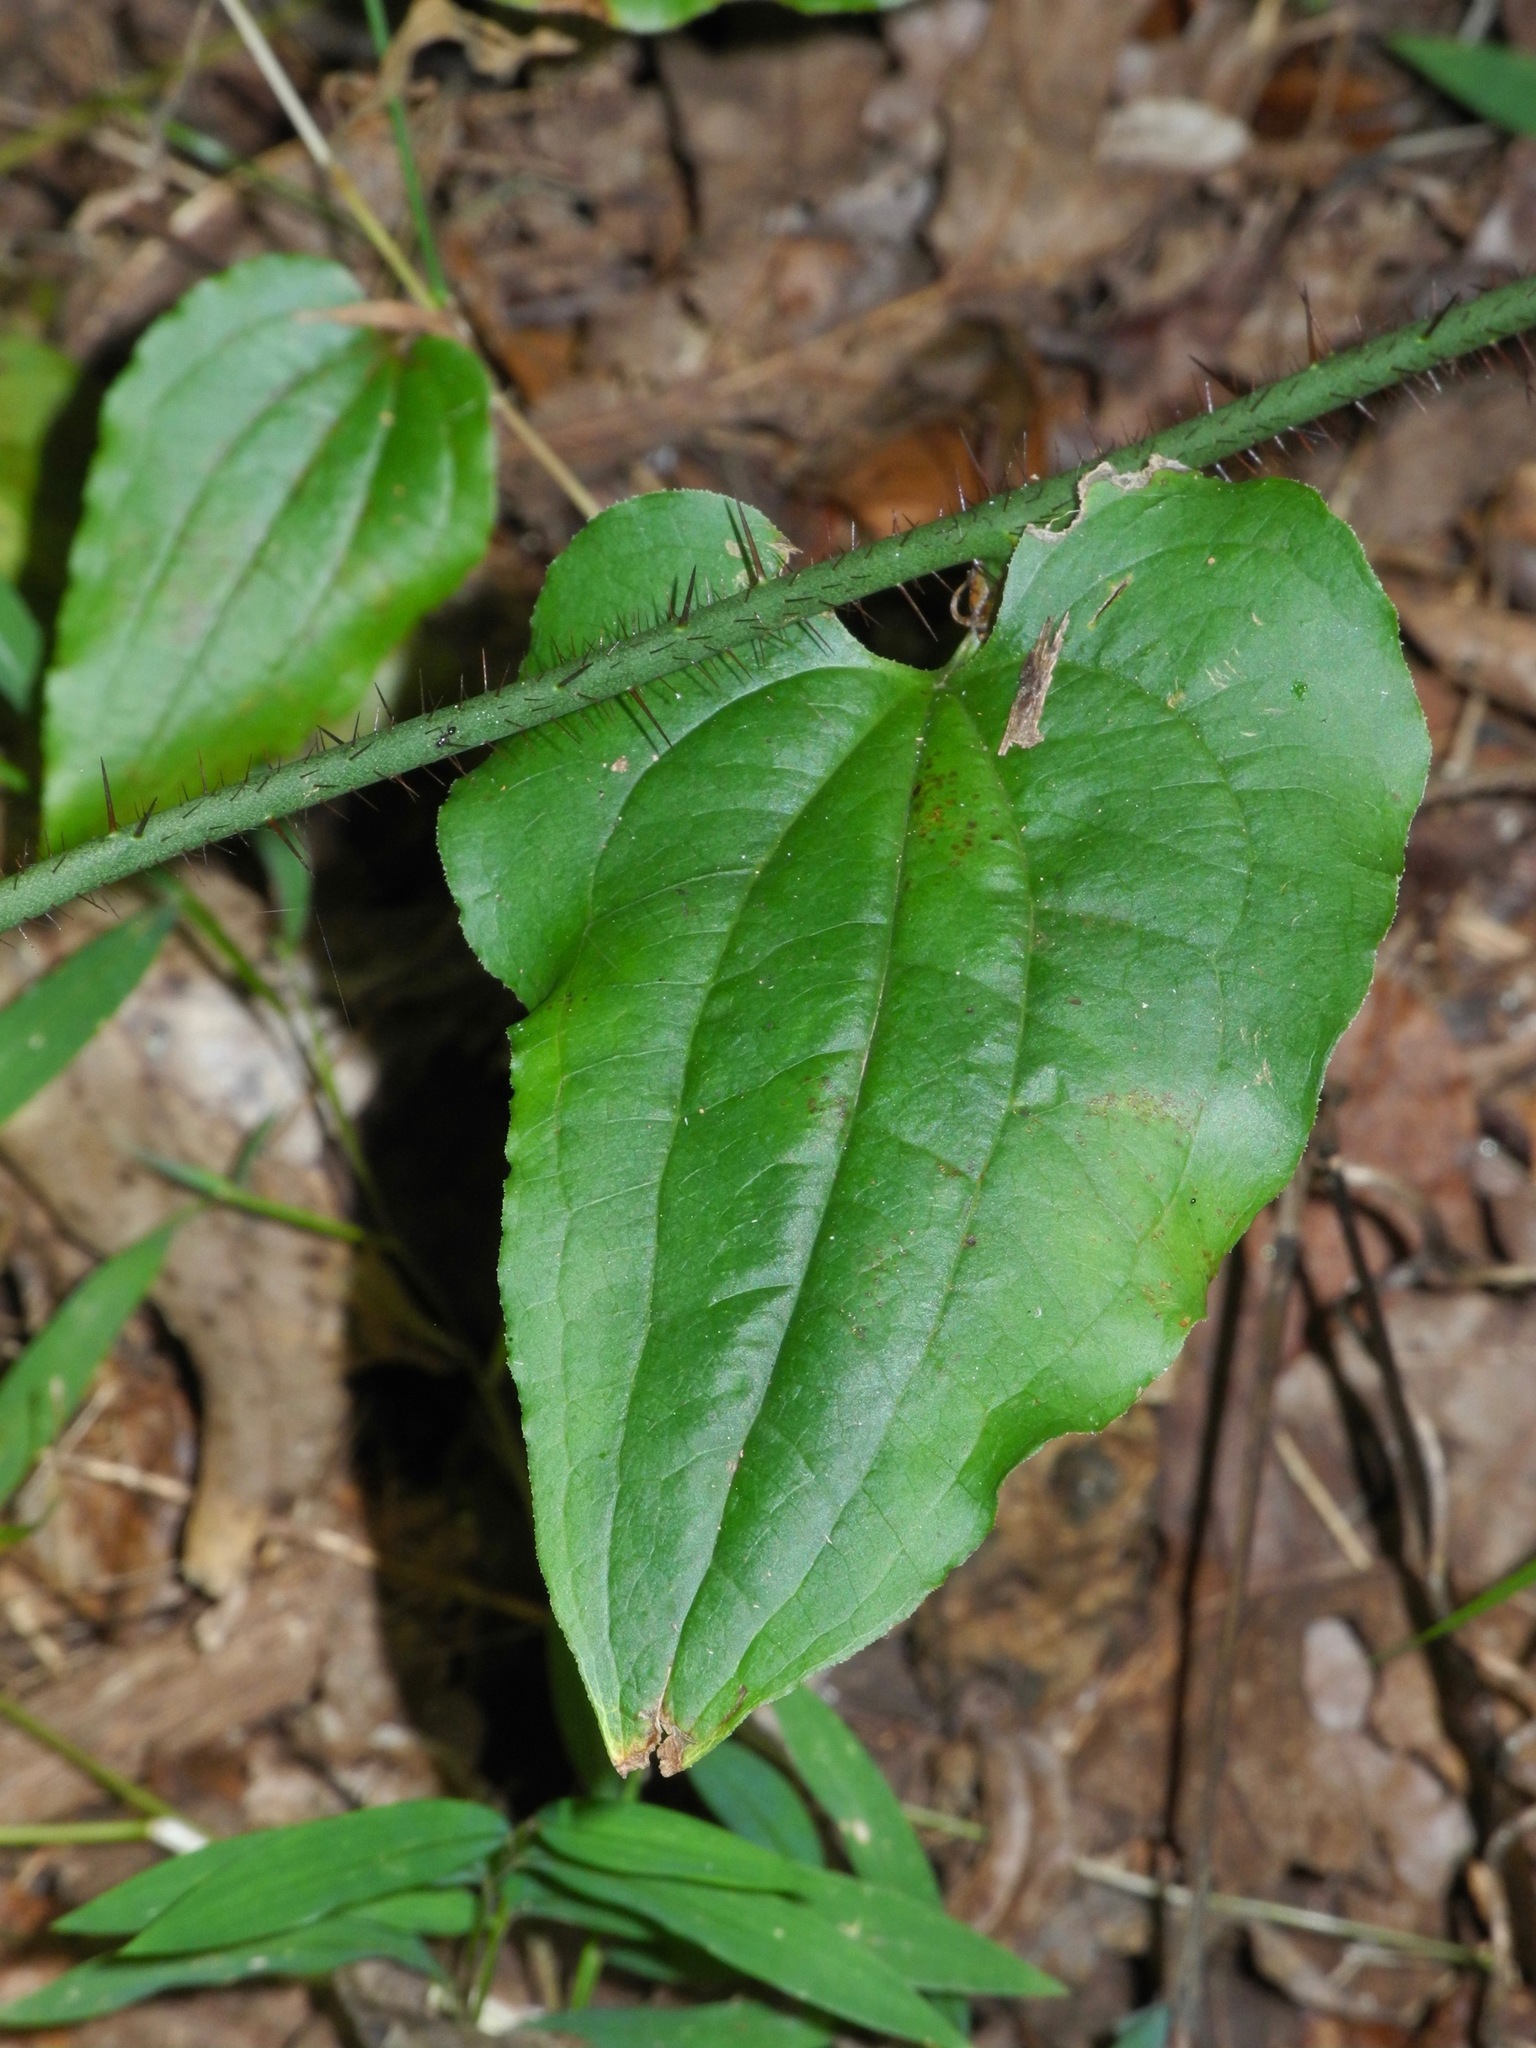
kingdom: Plantae
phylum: Tracheophyta
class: Liliopsida
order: Liliales
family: Smilacaceae
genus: Smilax
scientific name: Smilax tamnoides
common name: Hellfetter
